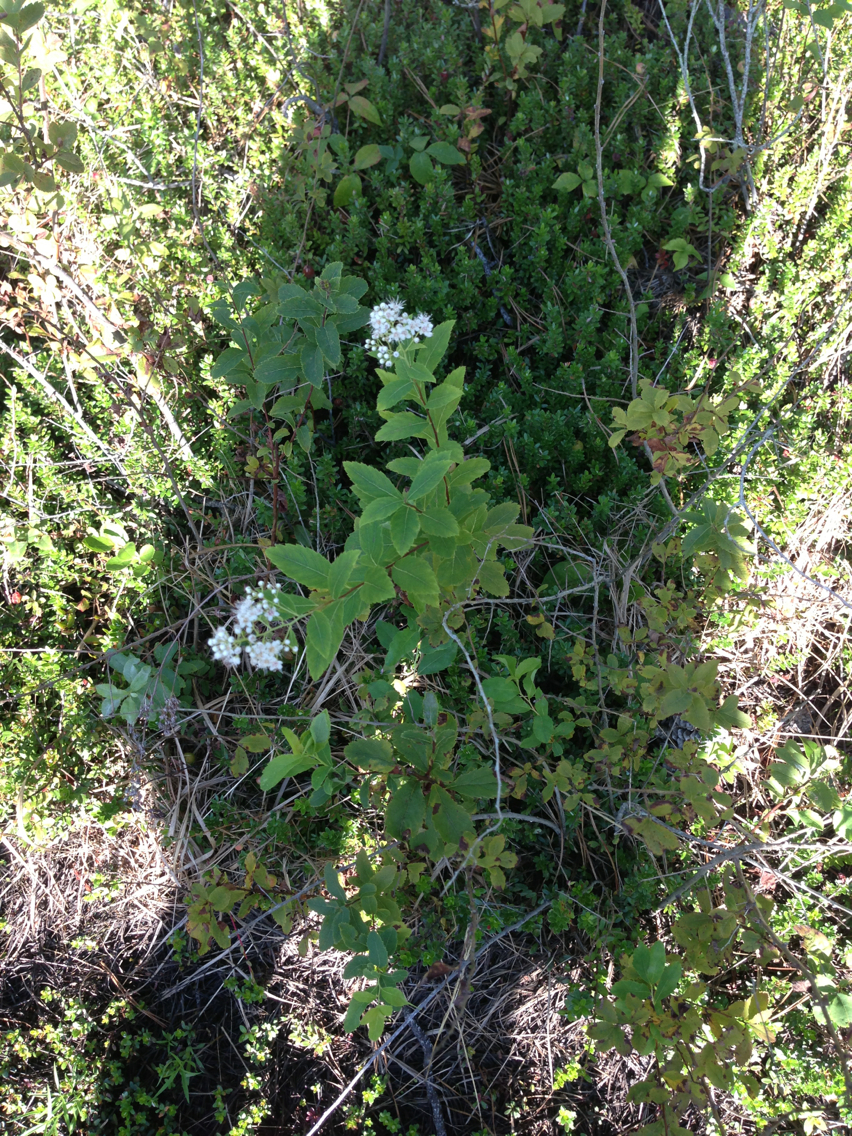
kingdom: Plantae
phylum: Tracheophyta
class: Magnoliopsida
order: Rosales
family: Rosaceae
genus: Spiraea
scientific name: Spiraea alba
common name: Pale bridewort
